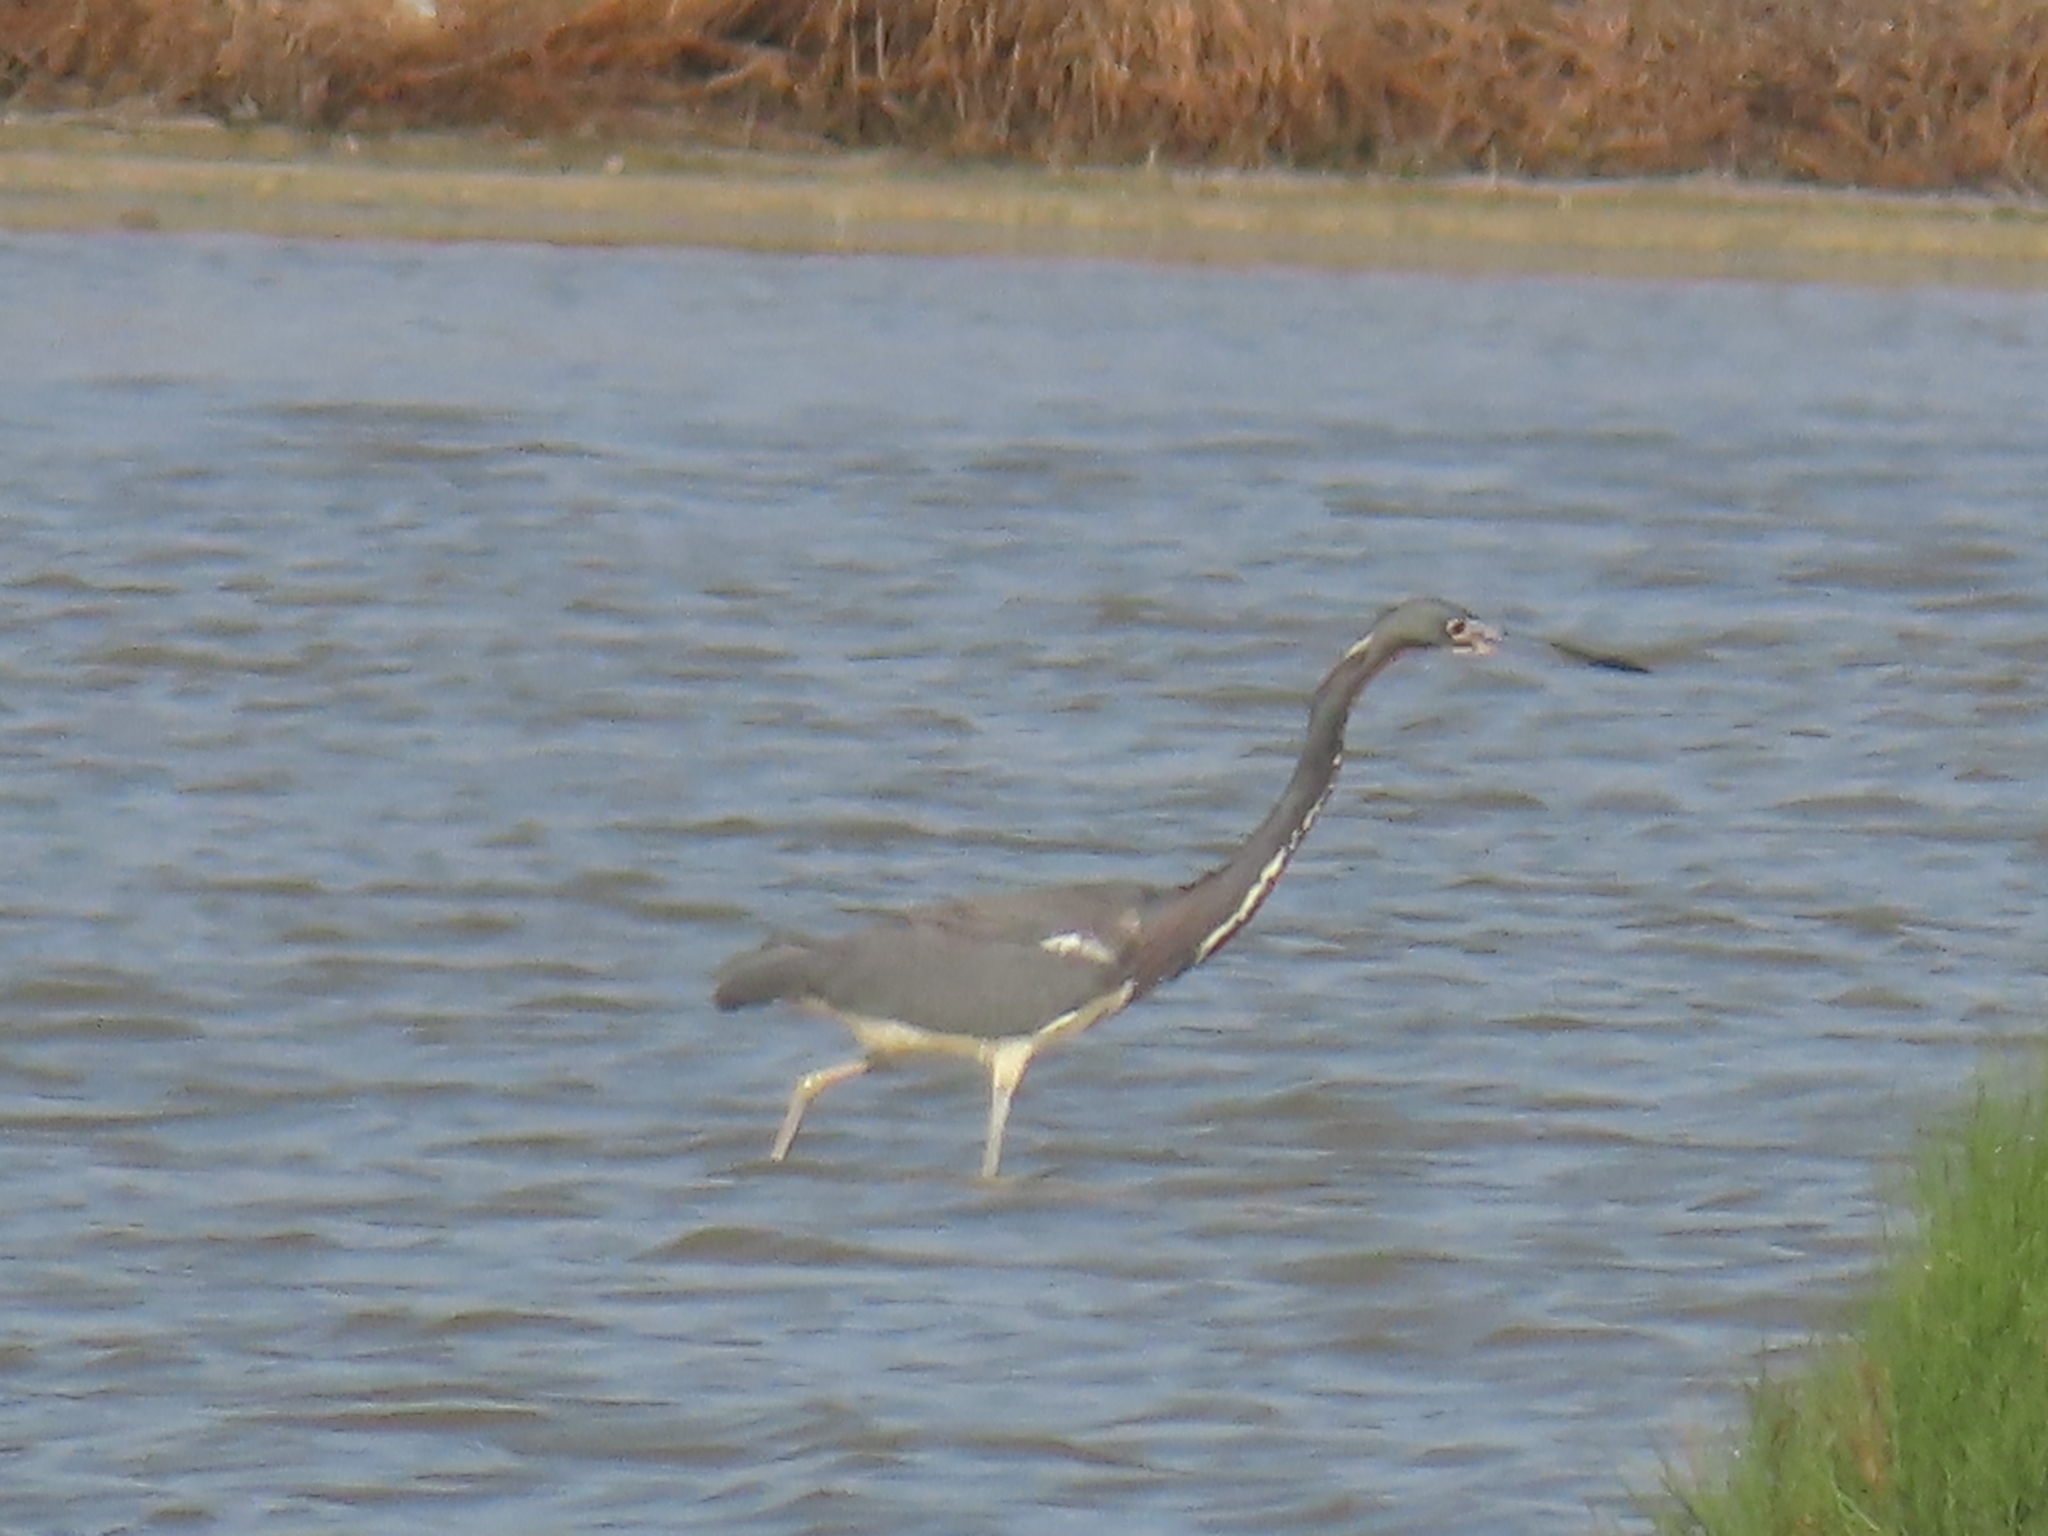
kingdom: Animalia
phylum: Chordata
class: Aves
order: Pelecaniformes
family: Ardeidae
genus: Egretta
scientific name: Egretta tricolor
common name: Tricolored heron
